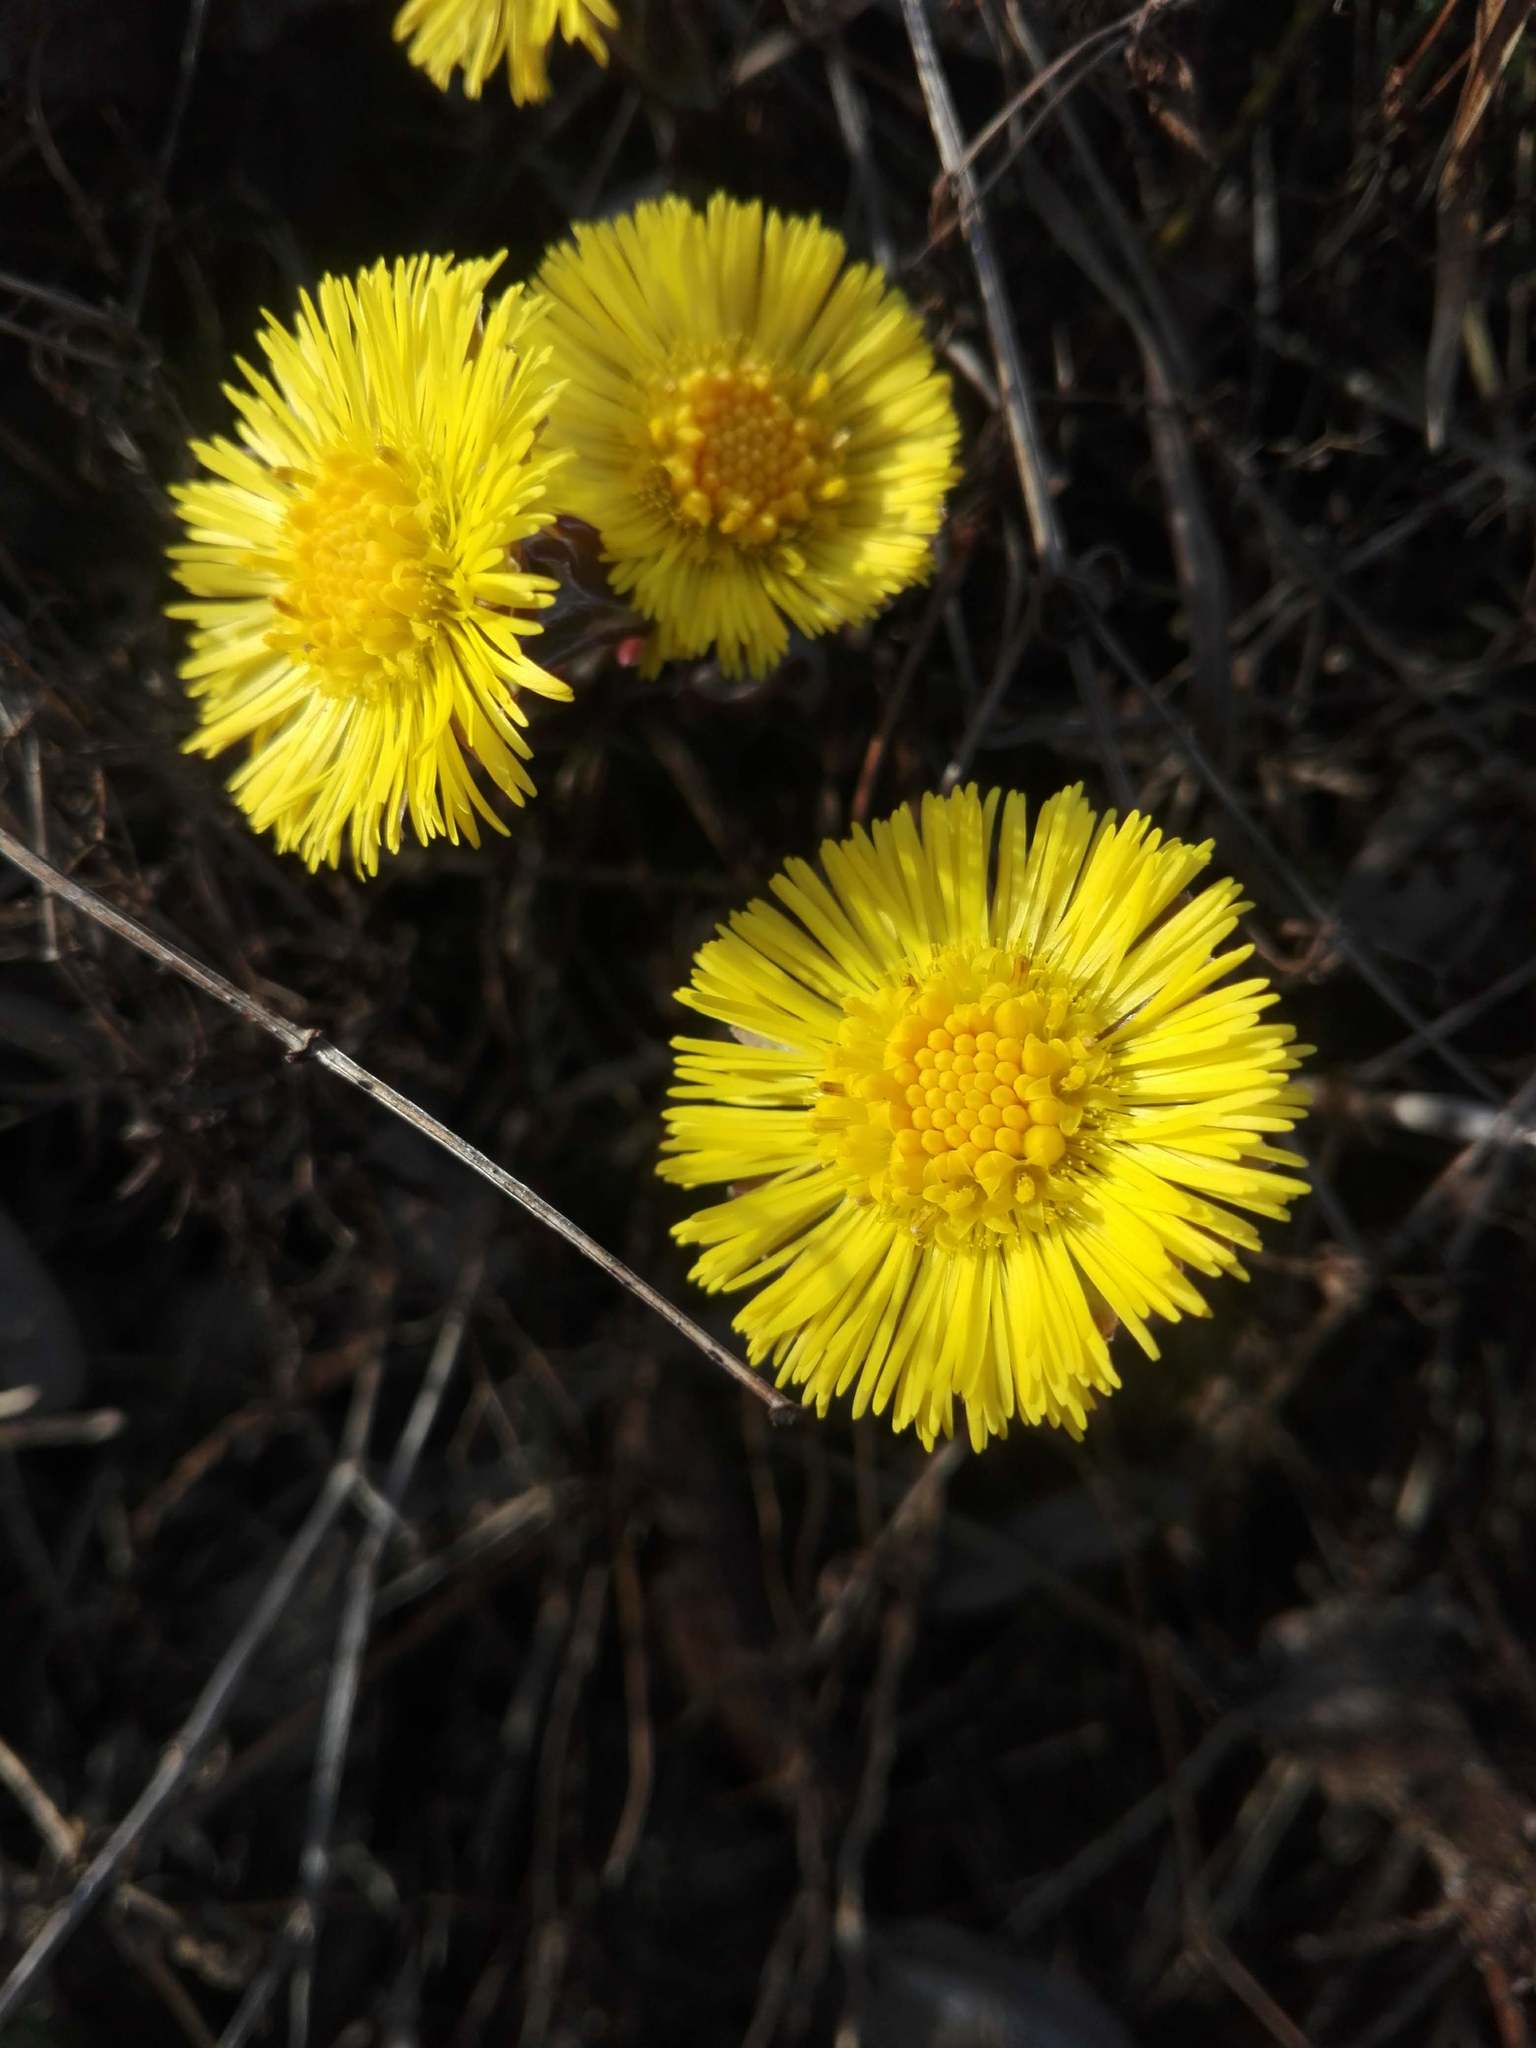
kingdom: Plantae
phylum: Tracheophyta
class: Magnoliopsida
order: Asterales
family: Asteraceae
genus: Tussilago
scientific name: Tussilago farfara
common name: Coltsfoot
